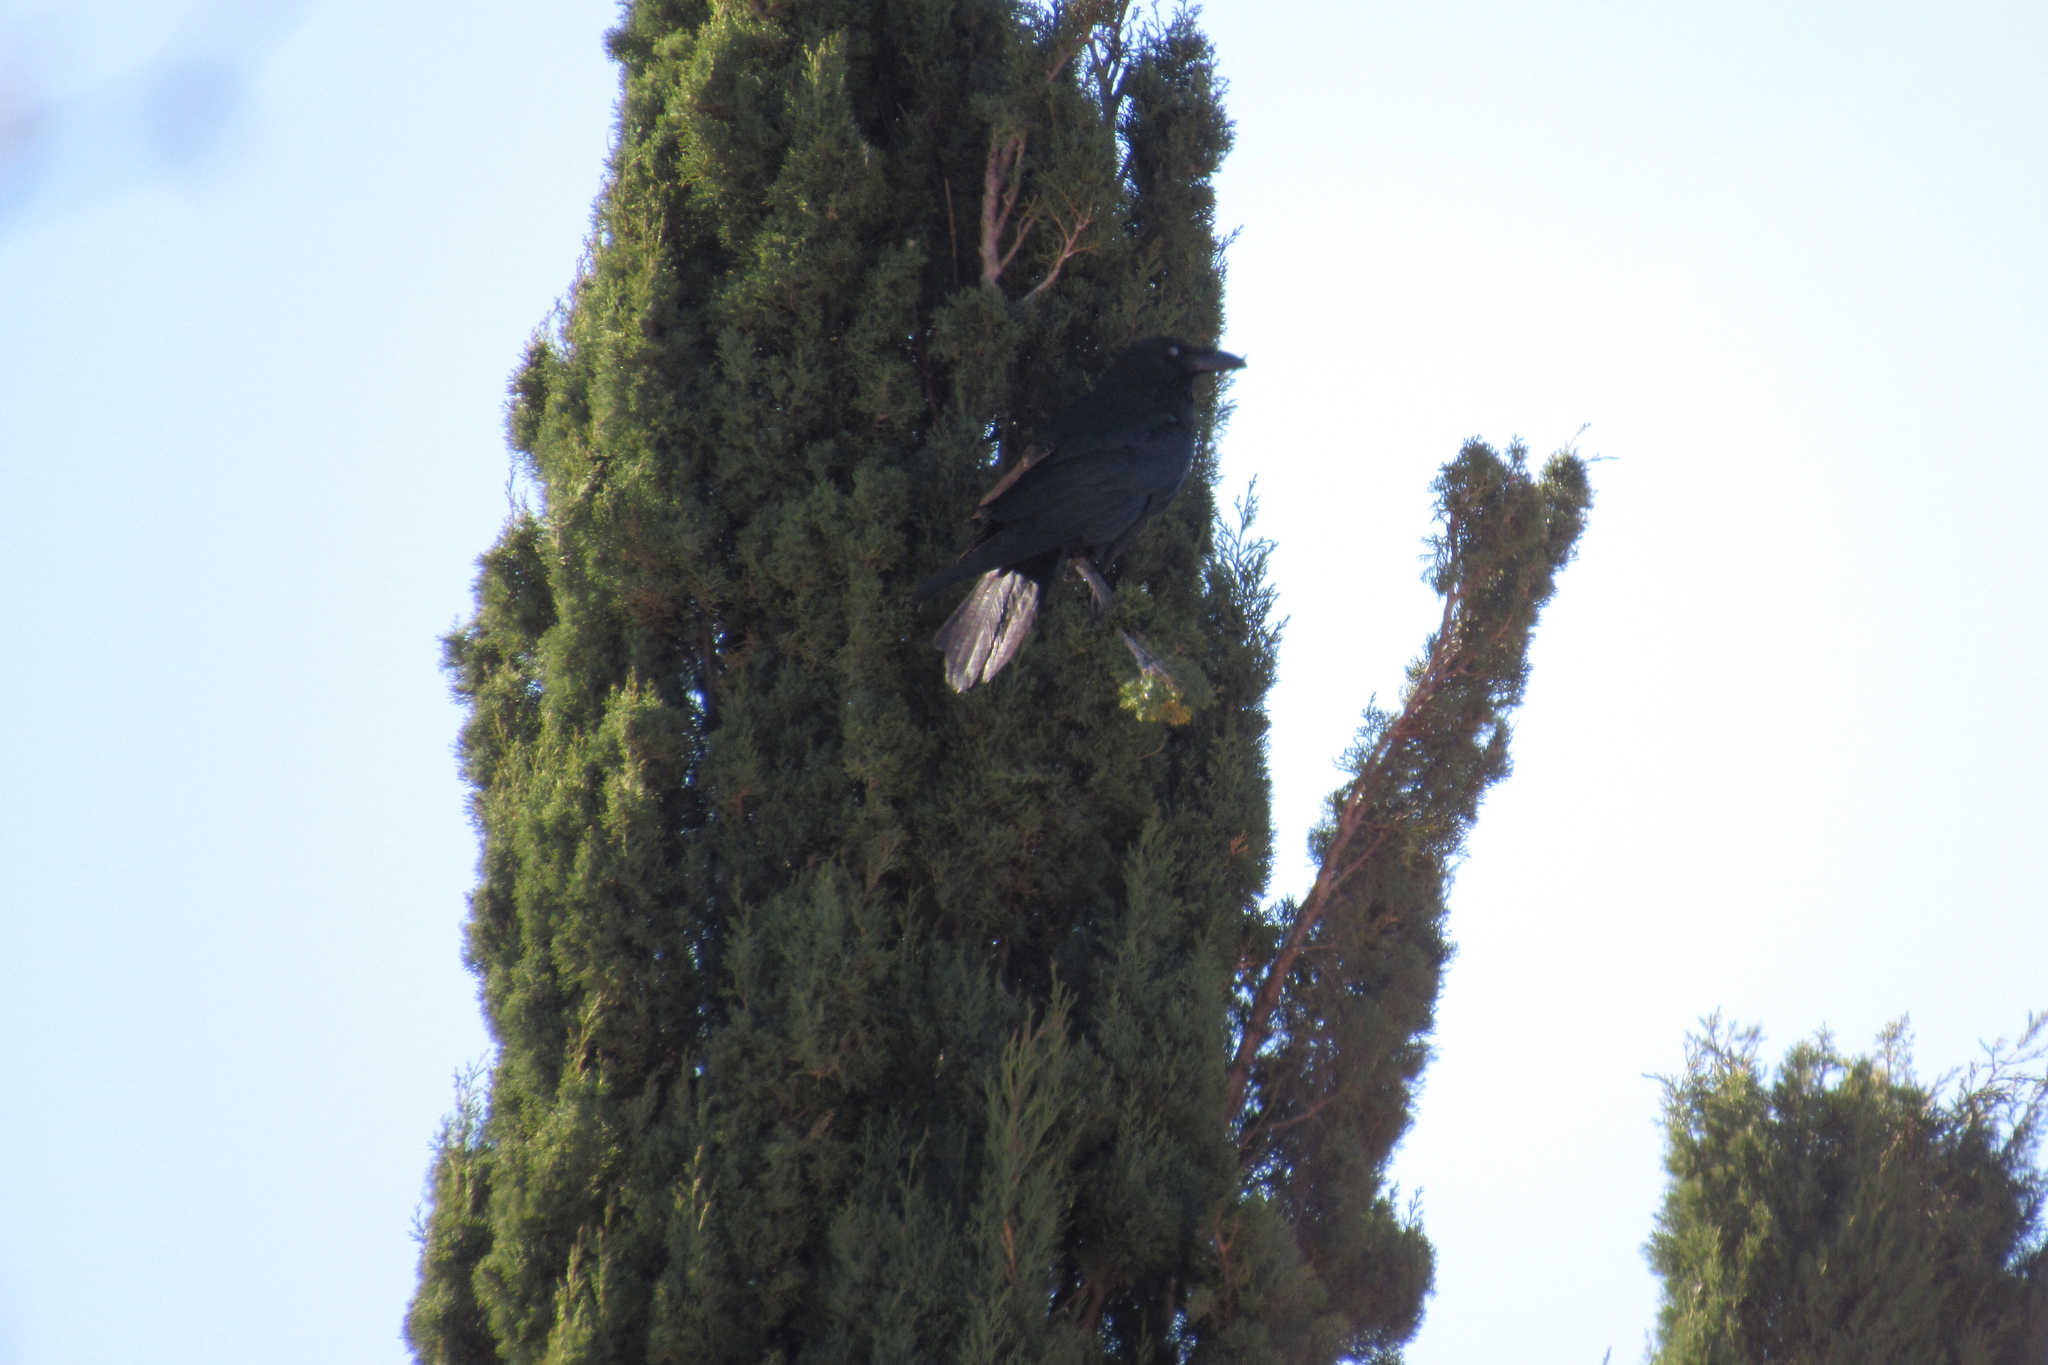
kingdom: Animalia
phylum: Chordata
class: Aves
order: Passeriformes
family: Corvidae
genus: Corvus
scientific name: Corvus corax
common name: Common raven
